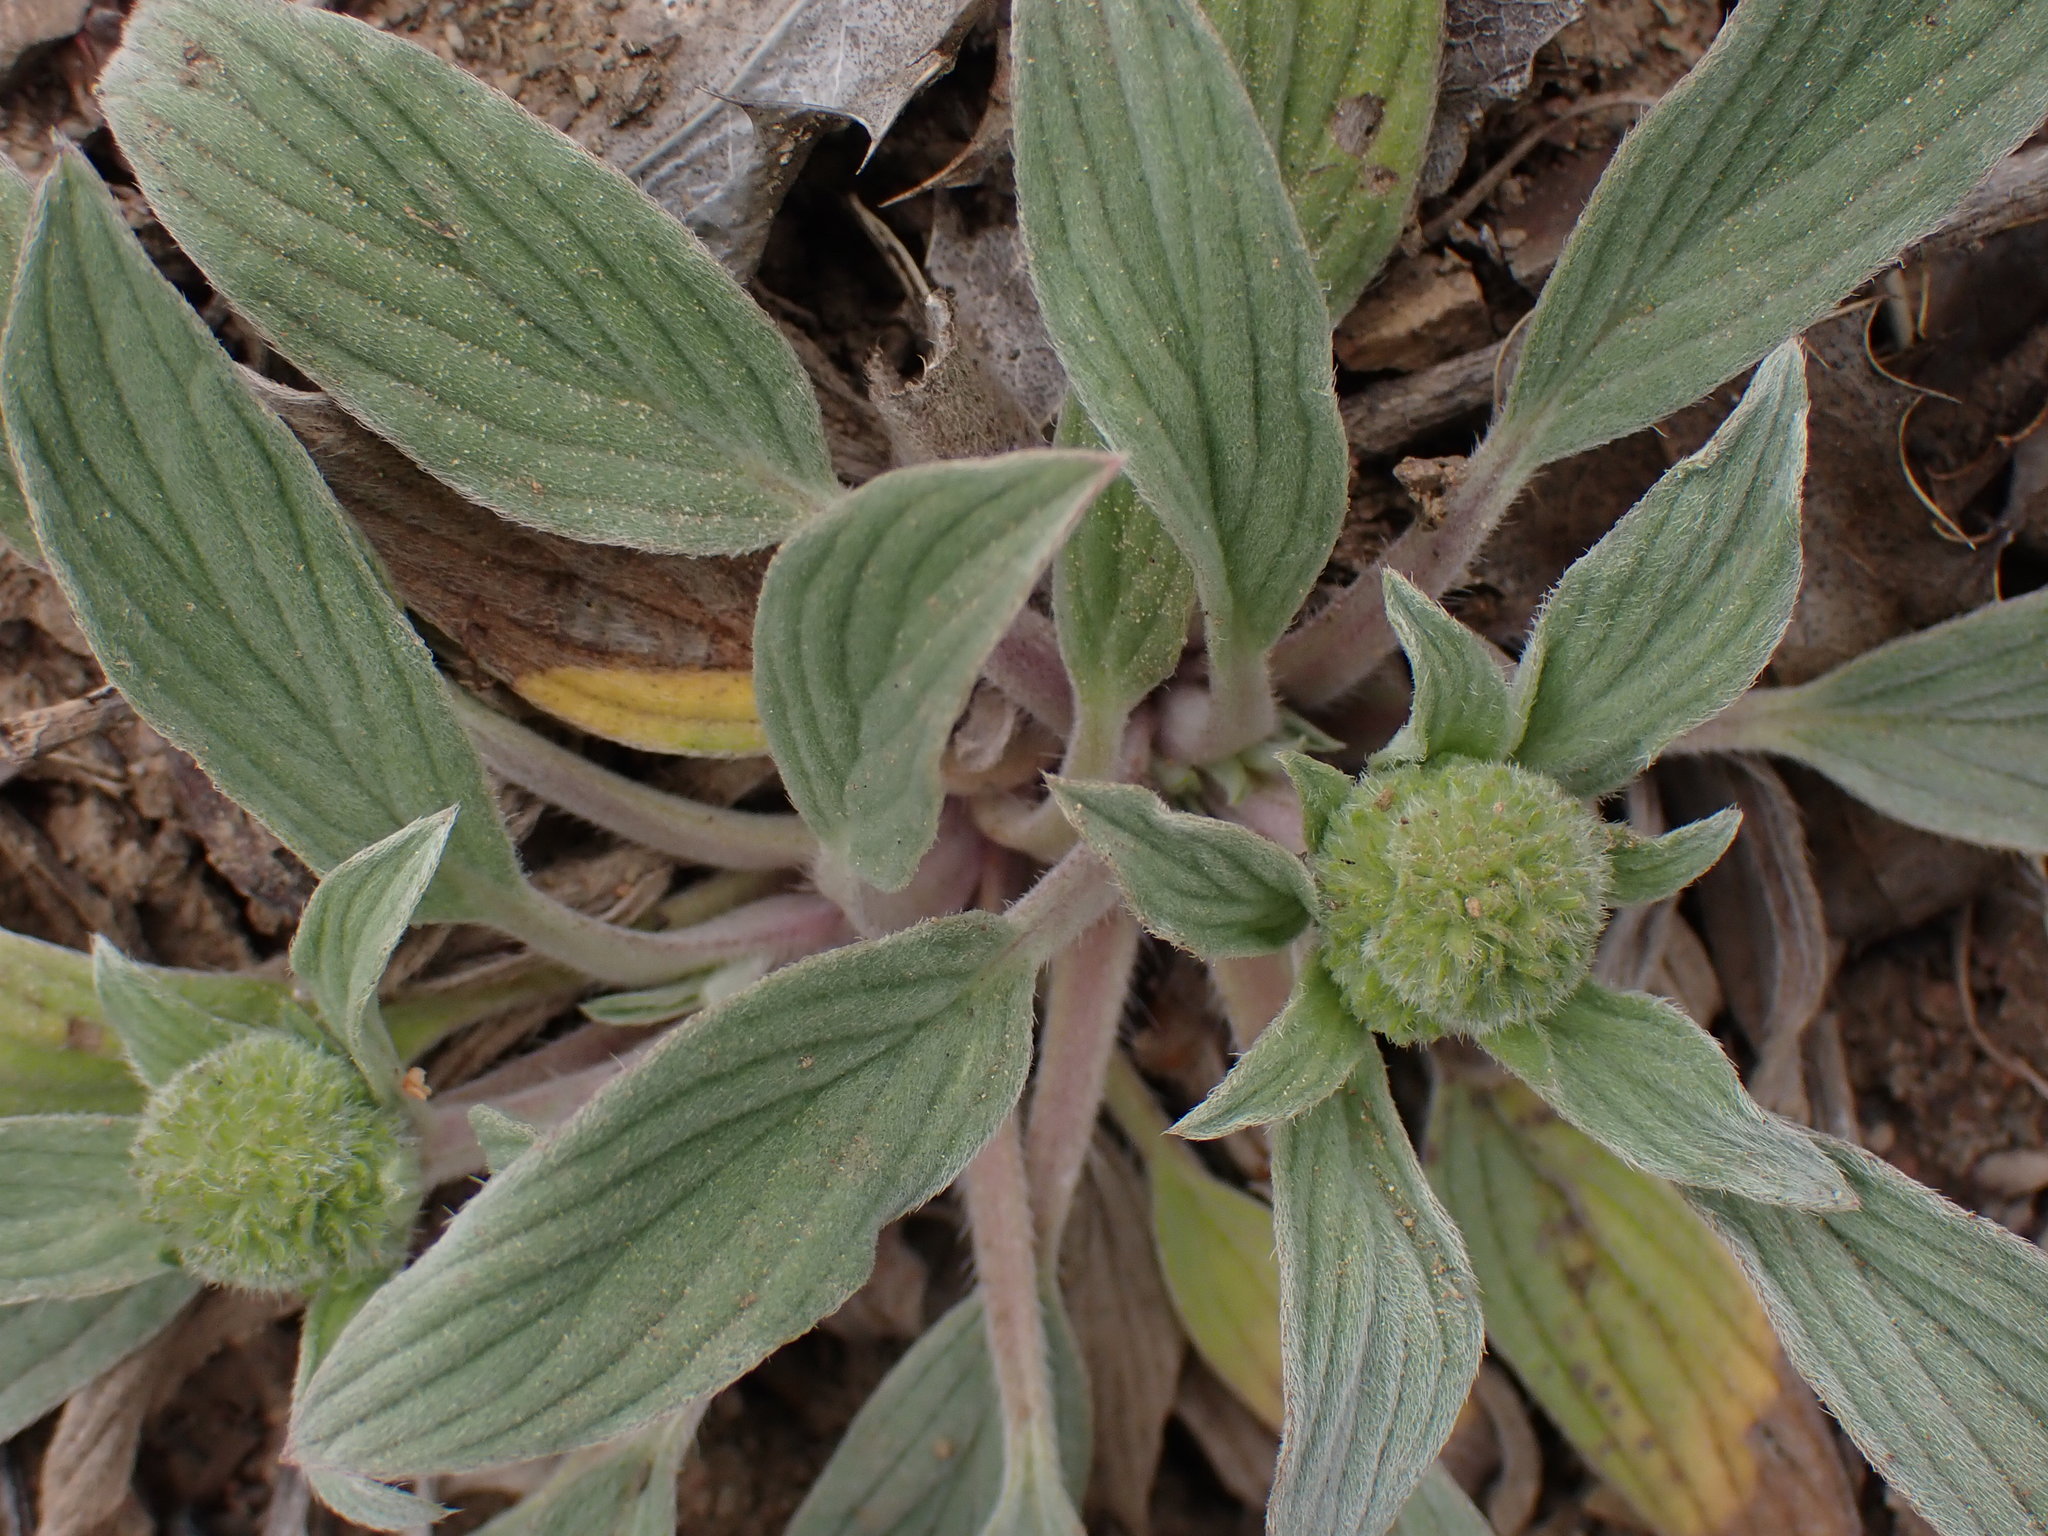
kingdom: Plantae
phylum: Tracheophyta
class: Magnoliopsida
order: Boraginales
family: Hydrophyllaceae
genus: Phacelia
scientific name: Phacelia hastata
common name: Silver-leaved phacelia
